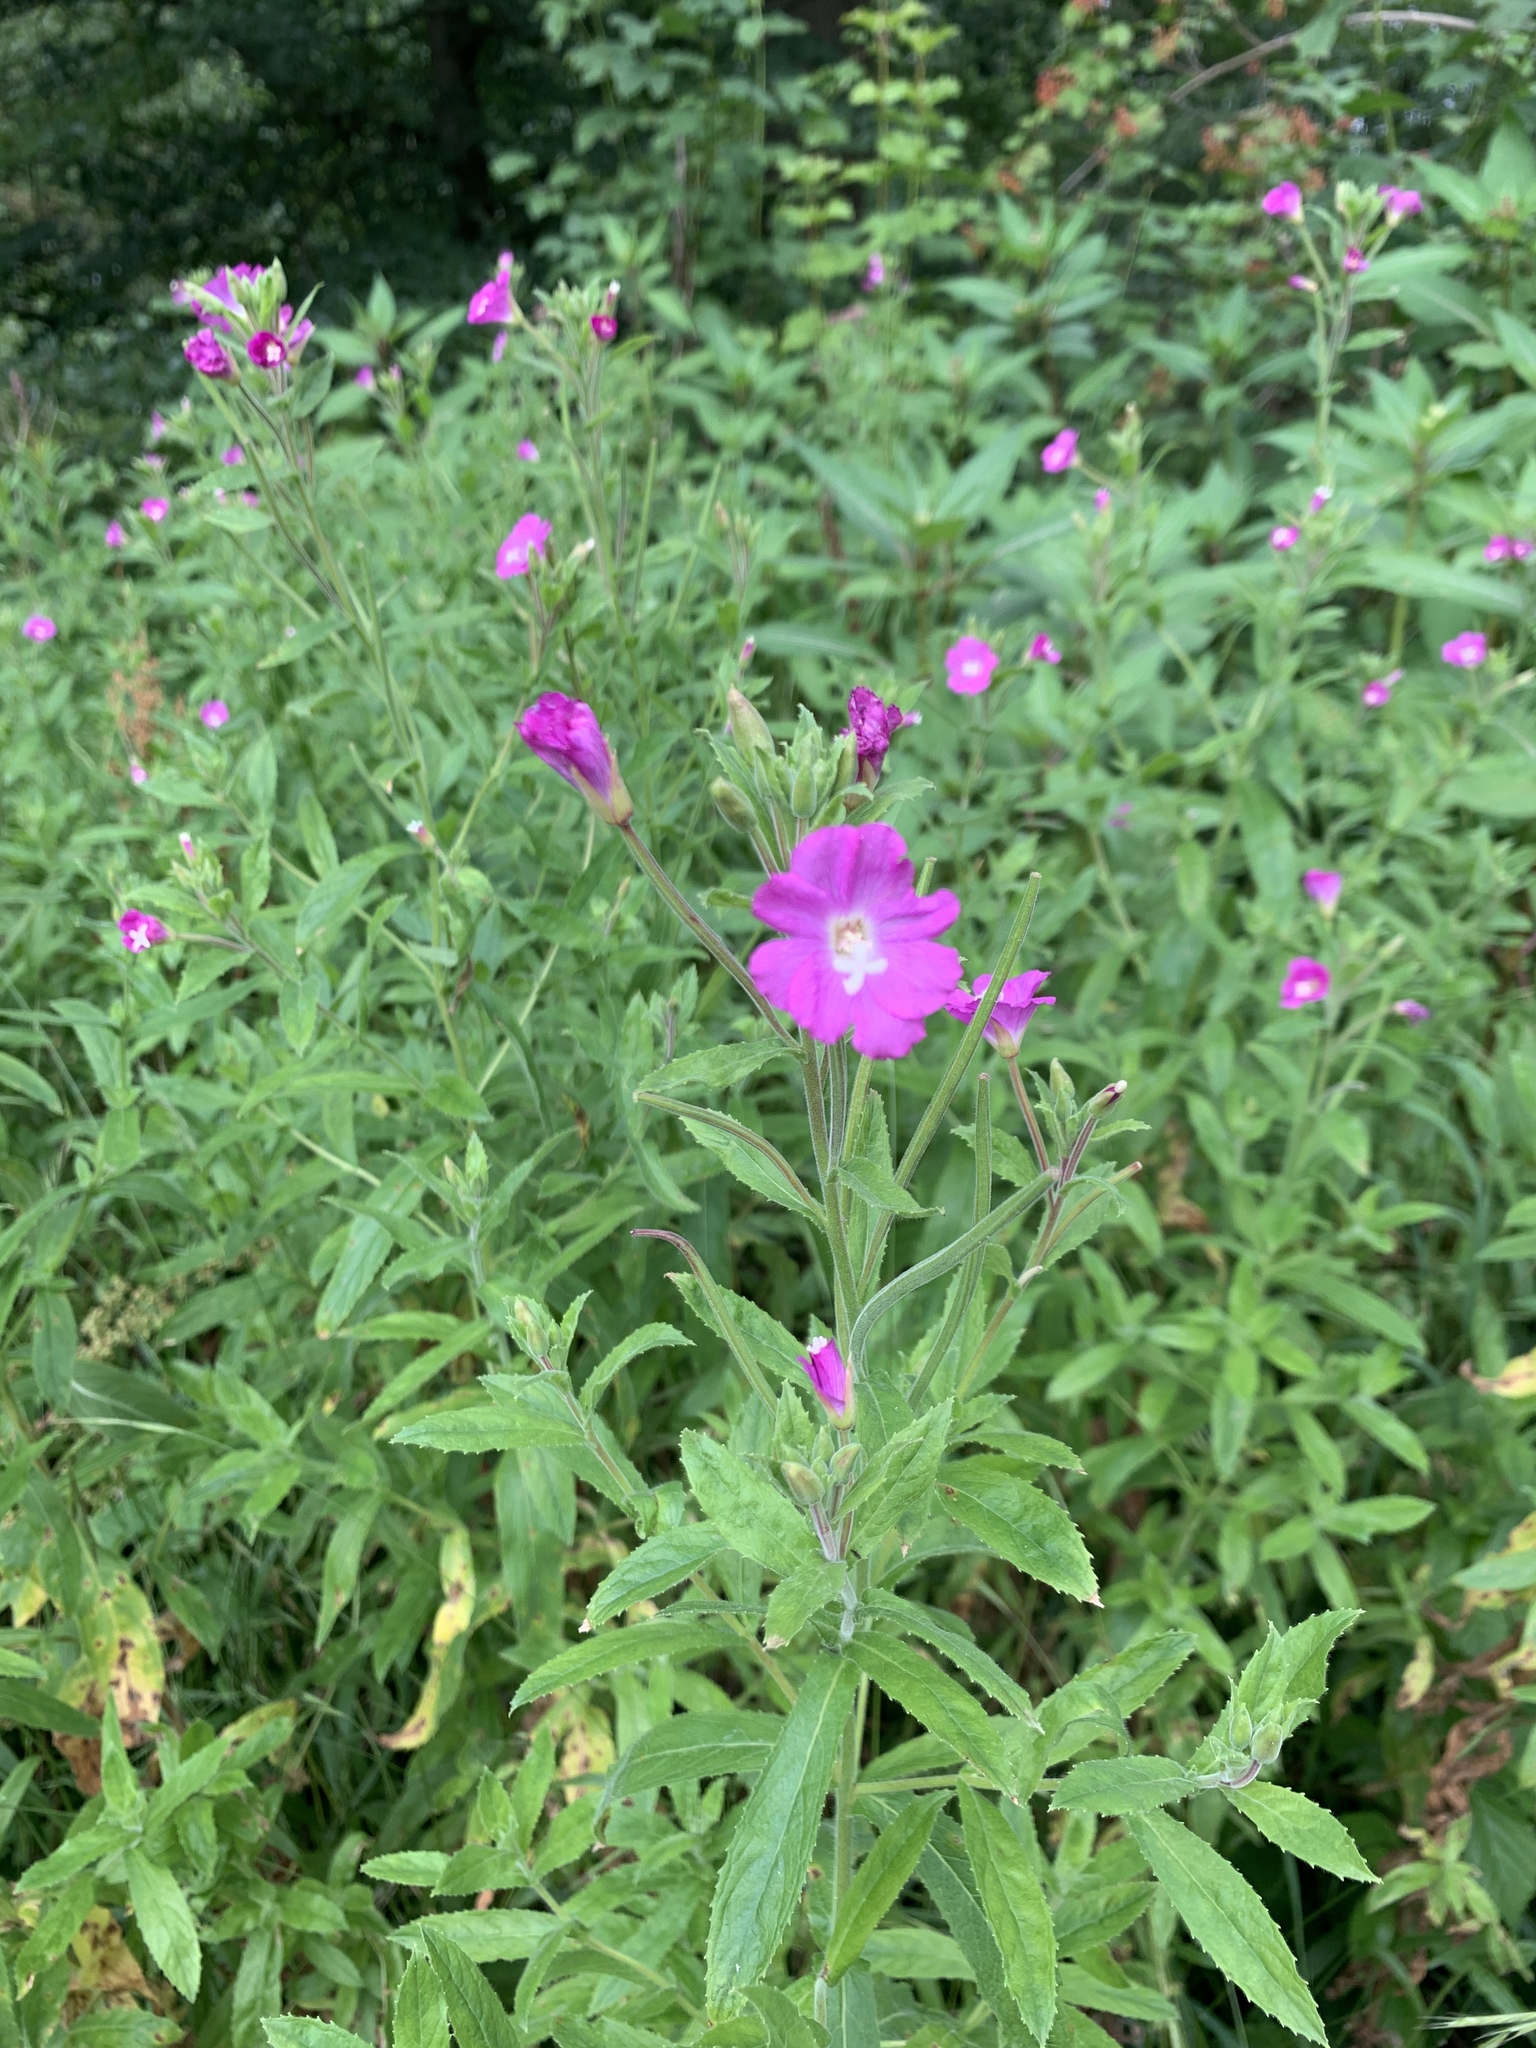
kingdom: Plantae
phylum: Tracheophyta
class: Magnoliopsida
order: Myrtales
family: Onagraceae
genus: Epilobium
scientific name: Epilobium hirsutum
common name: Great willowherb
